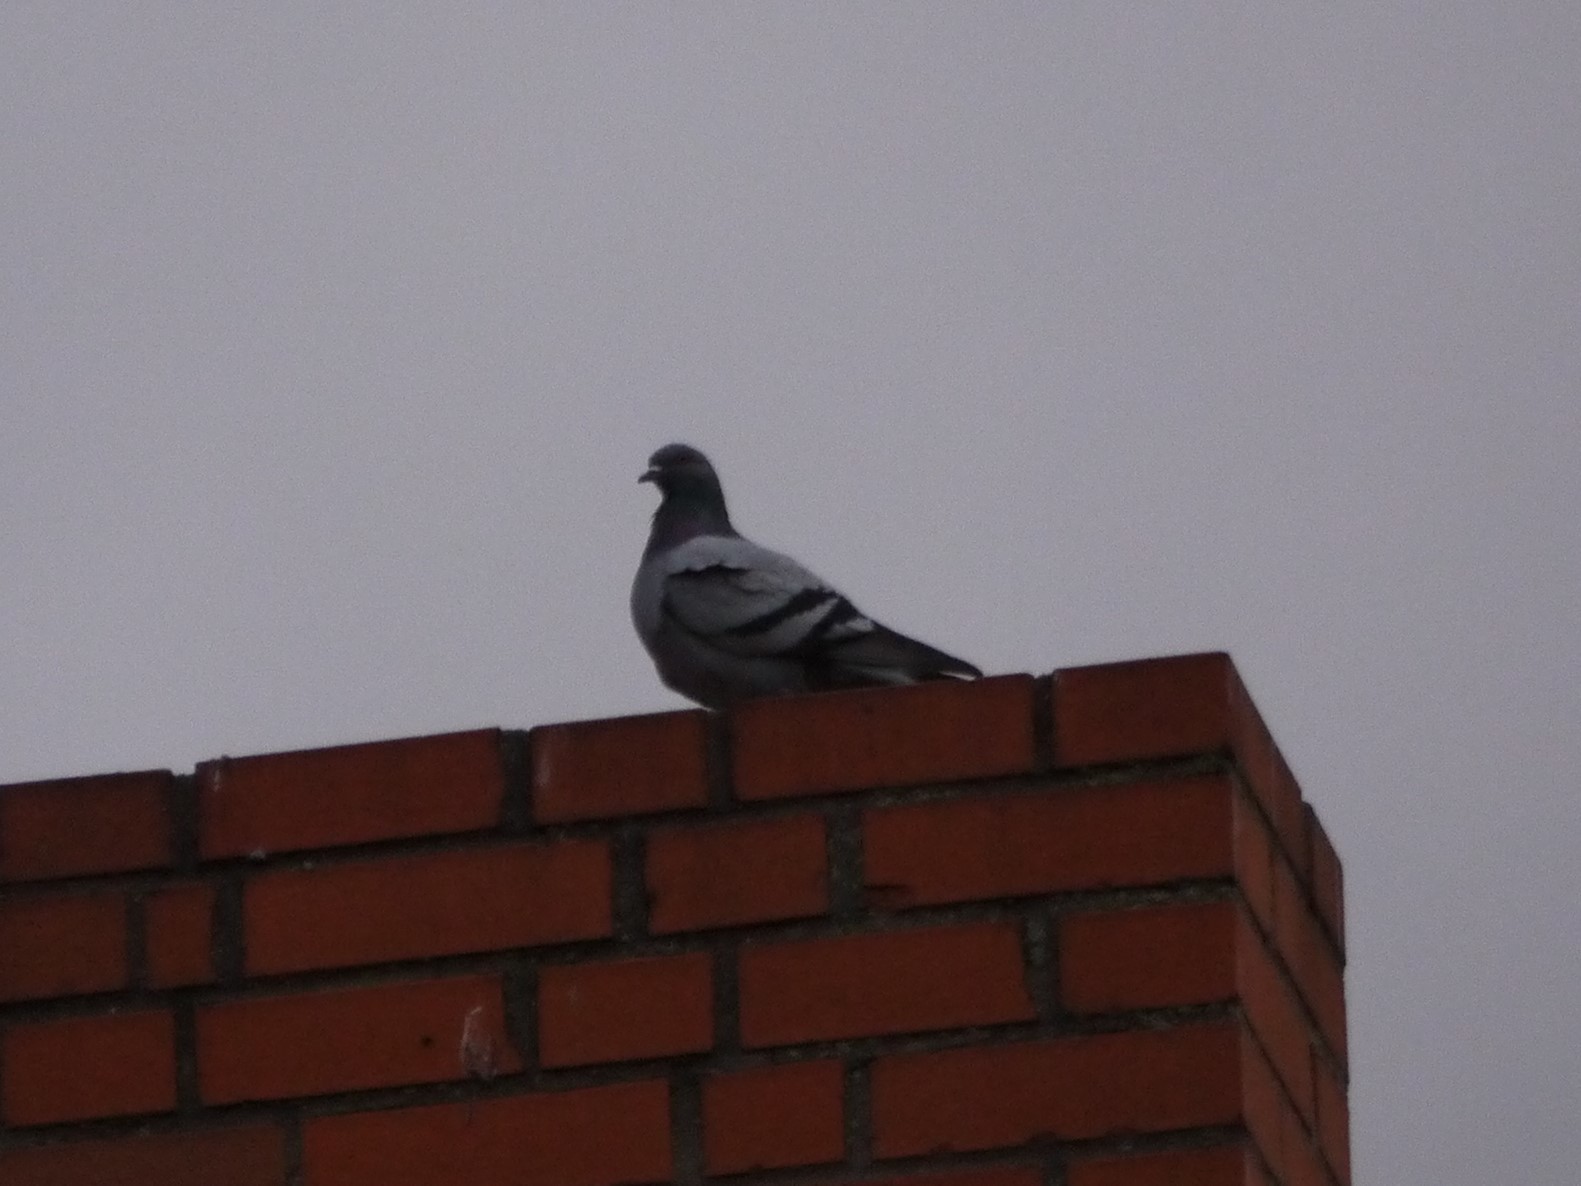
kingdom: Animalia
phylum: Chordata
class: Aves
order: Columbiformes
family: Columbidae
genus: Columba
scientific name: Columba livia
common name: Rock pigeon
